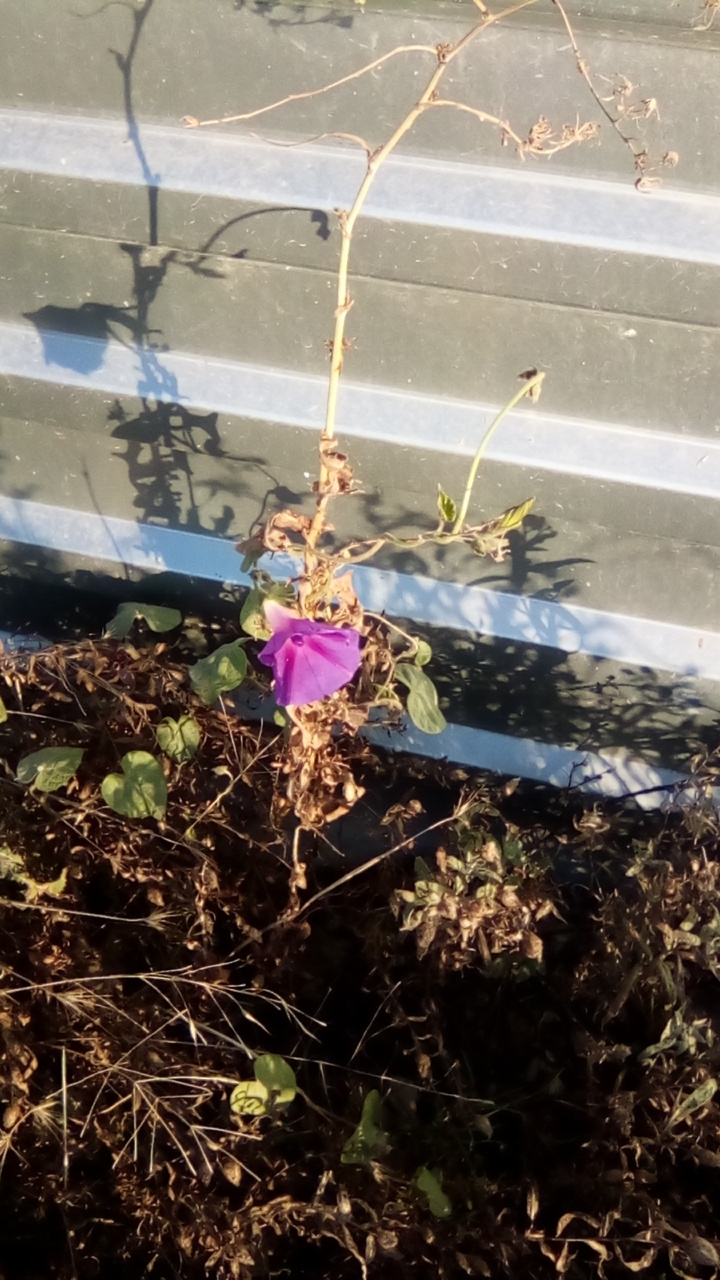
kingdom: Plantae
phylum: Tracheophyta
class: Magnoliopsida
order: Solanales
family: Convolvulaceae
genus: Ipomoea
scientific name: Ipomoea purpurea
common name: Common morning-glory
